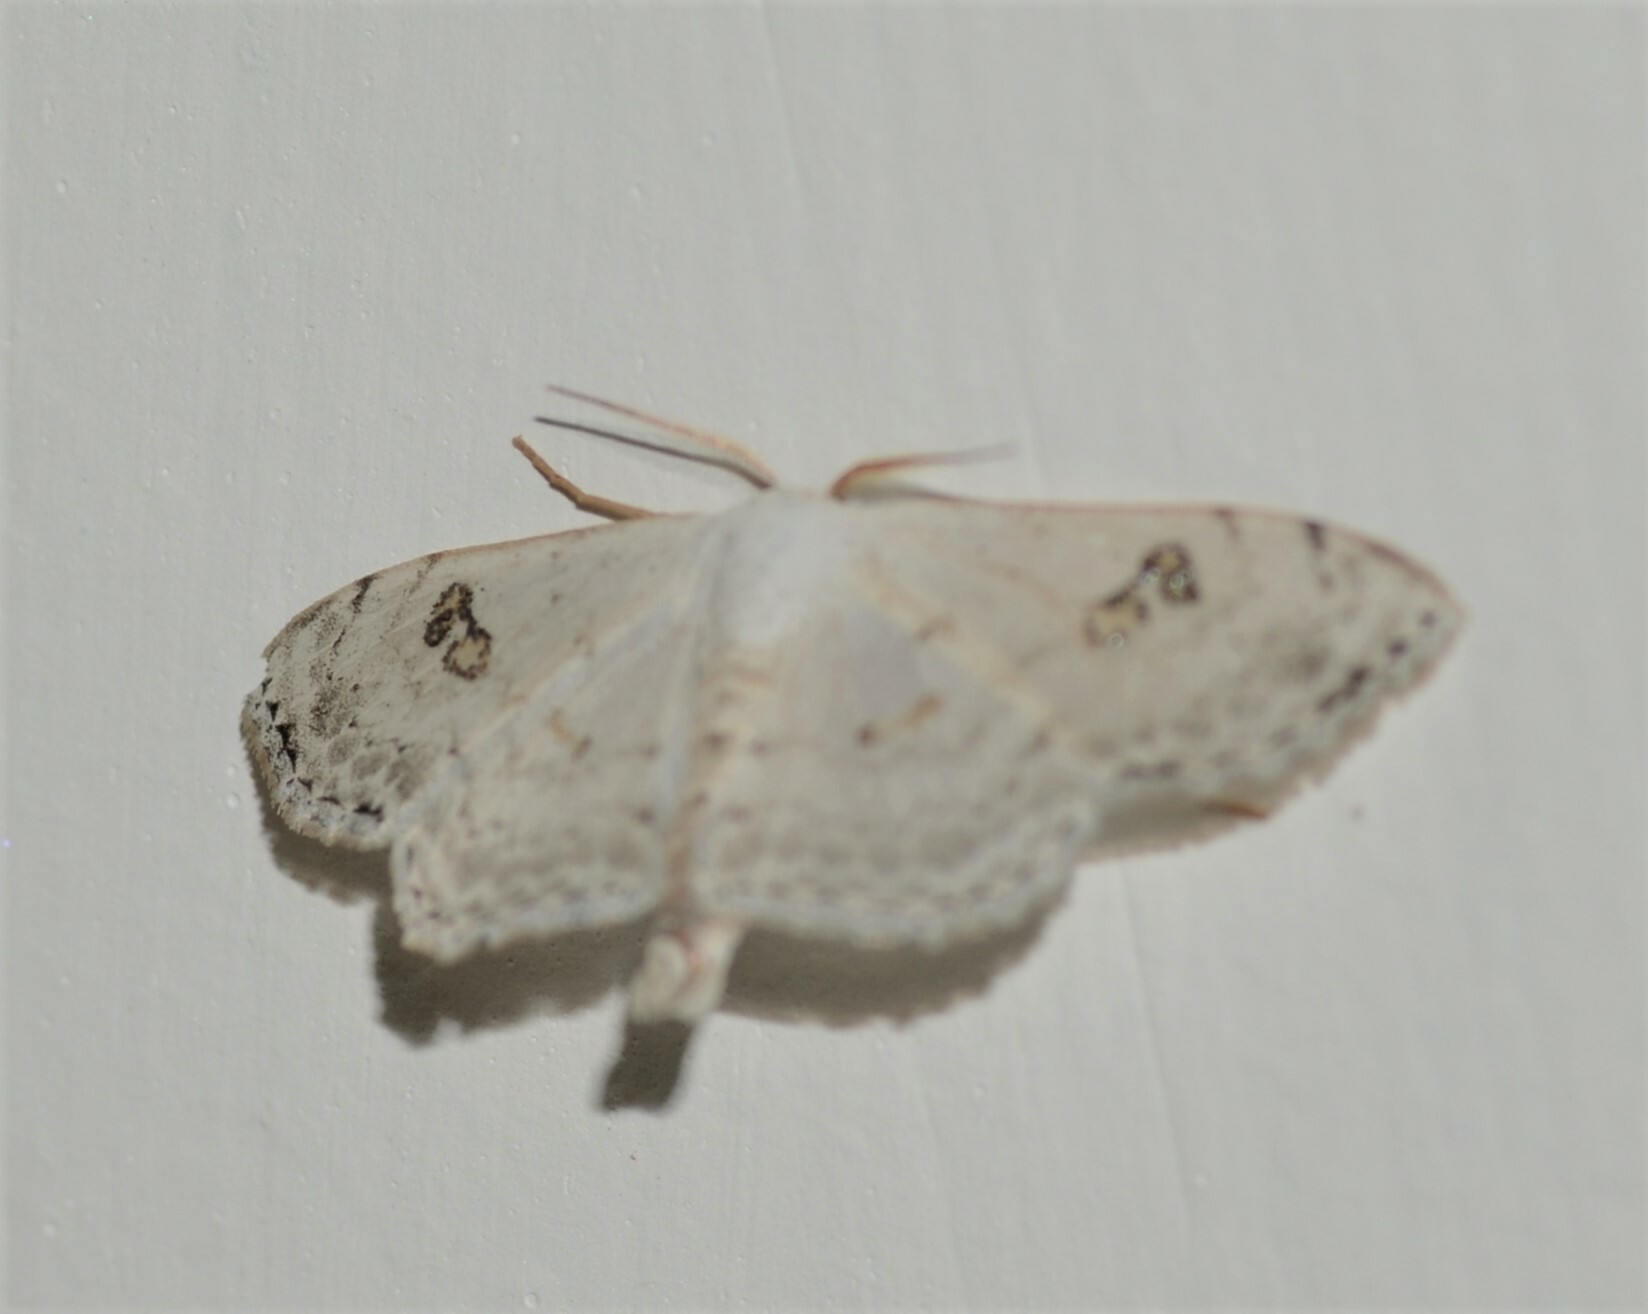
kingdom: Animalia
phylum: Arthropoda
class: Insecta
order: Lepidoptera
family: Geometridae
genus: Somatina
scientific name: Somatina omicraria
